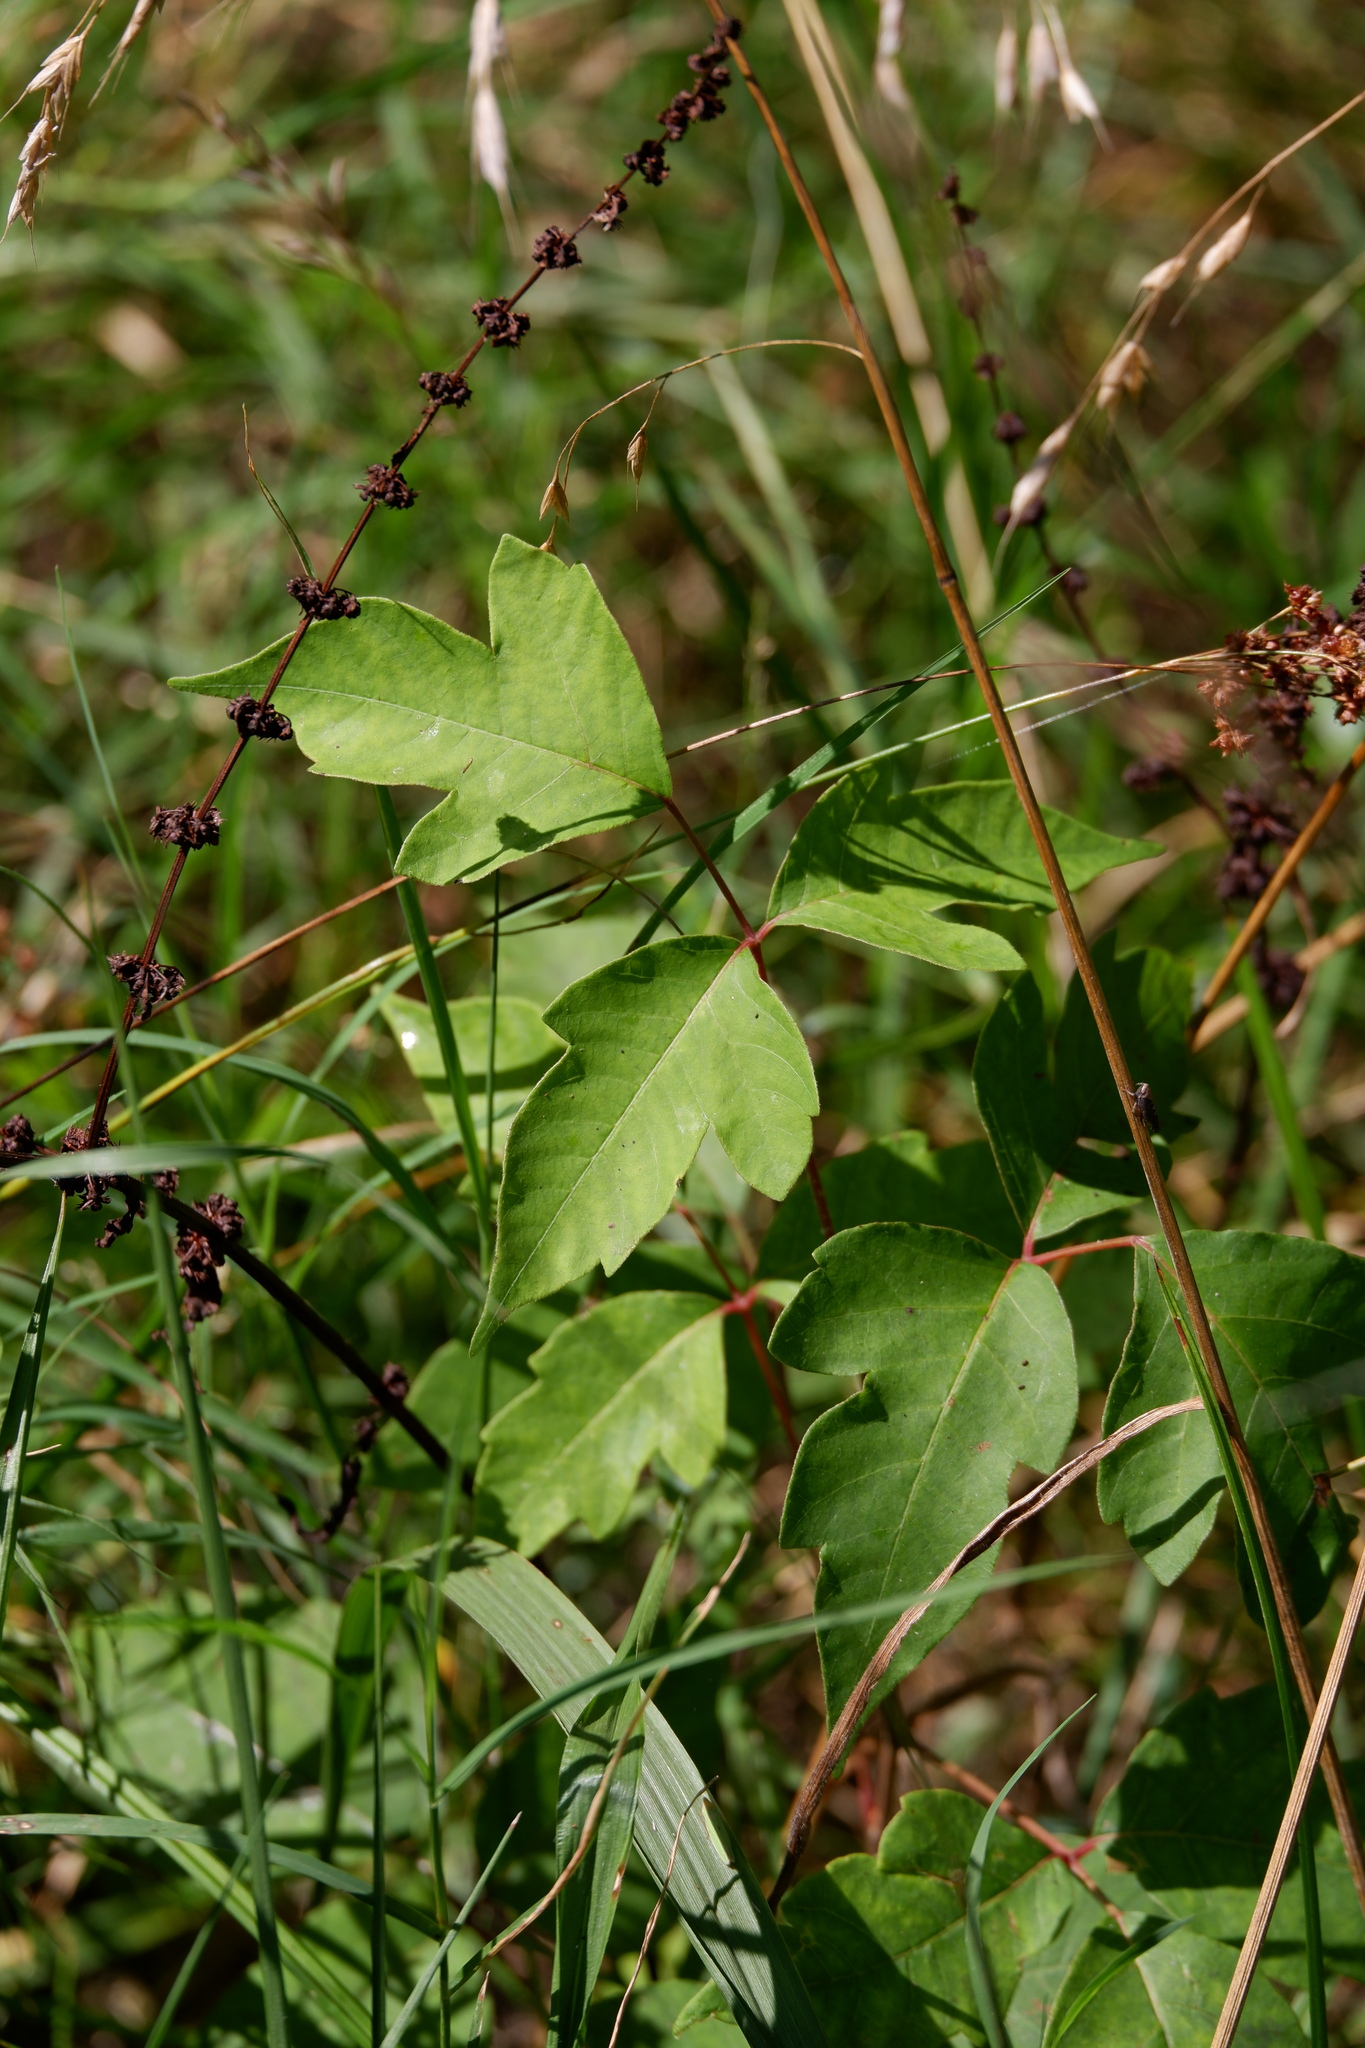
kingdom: Plantae
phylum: Tracheophyta
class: Magnoliopsida
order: Sapindales
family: Anacardiaceae
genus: Toxicodendron
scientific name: Toxicodendron radicans
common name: Poison ivy
